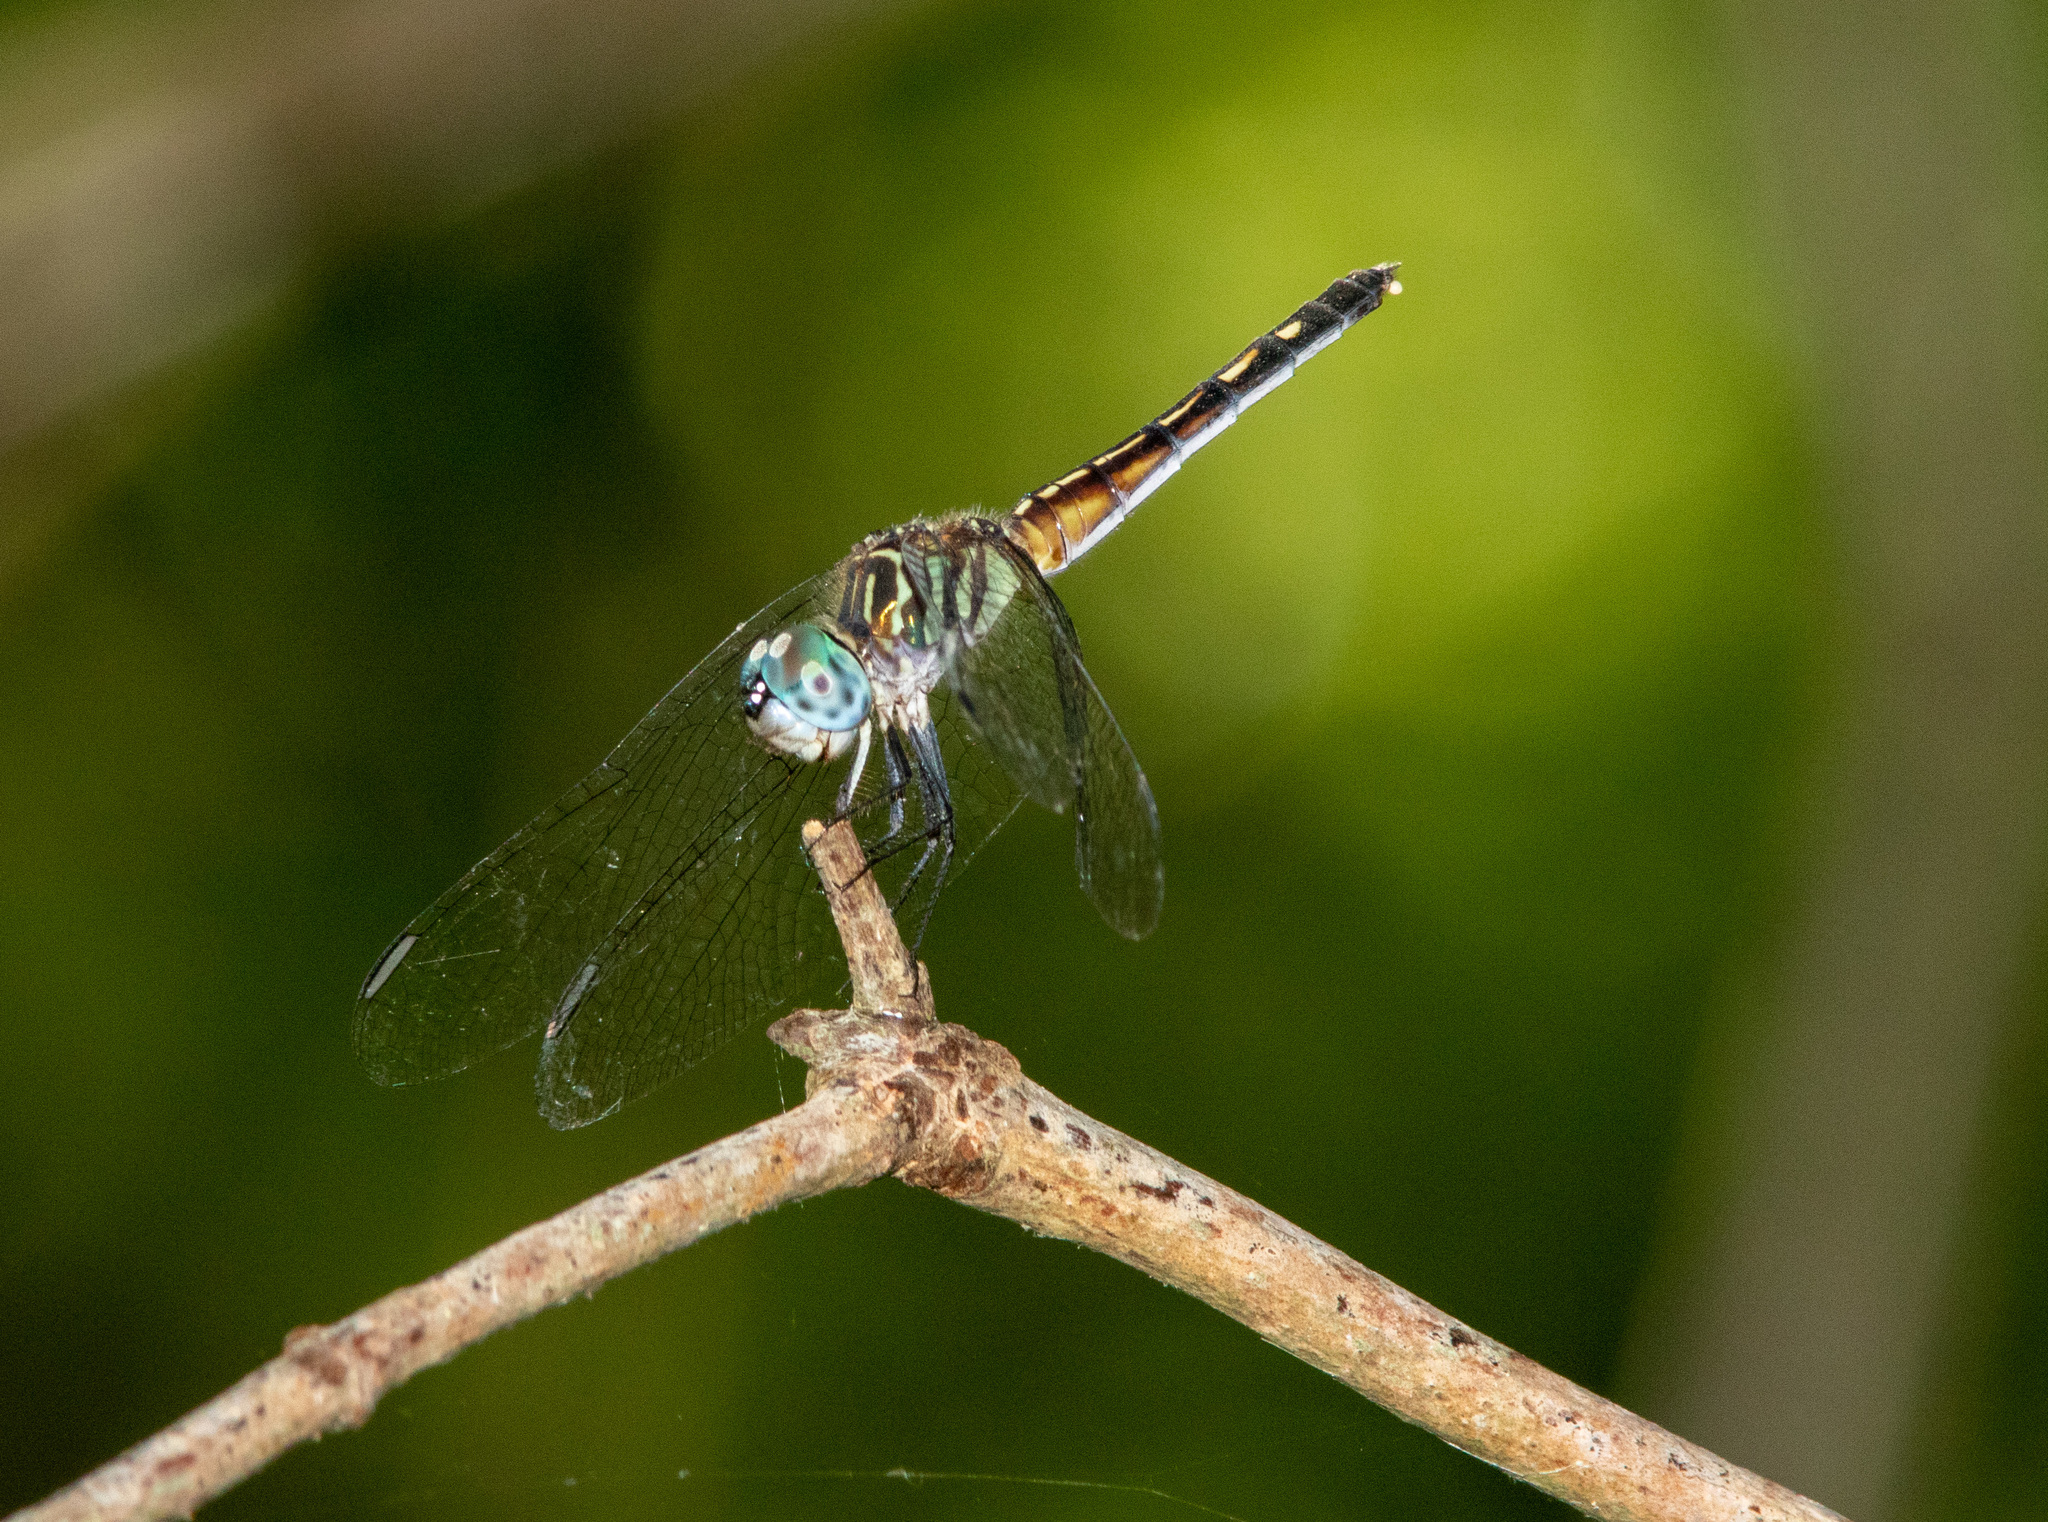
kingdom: Animalia
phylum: Arthropoda
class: Insecta
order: Odonata
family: Libellulidae
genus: Pachydiplax
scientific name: Pachydiplax longipennis
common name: Blue dasher
